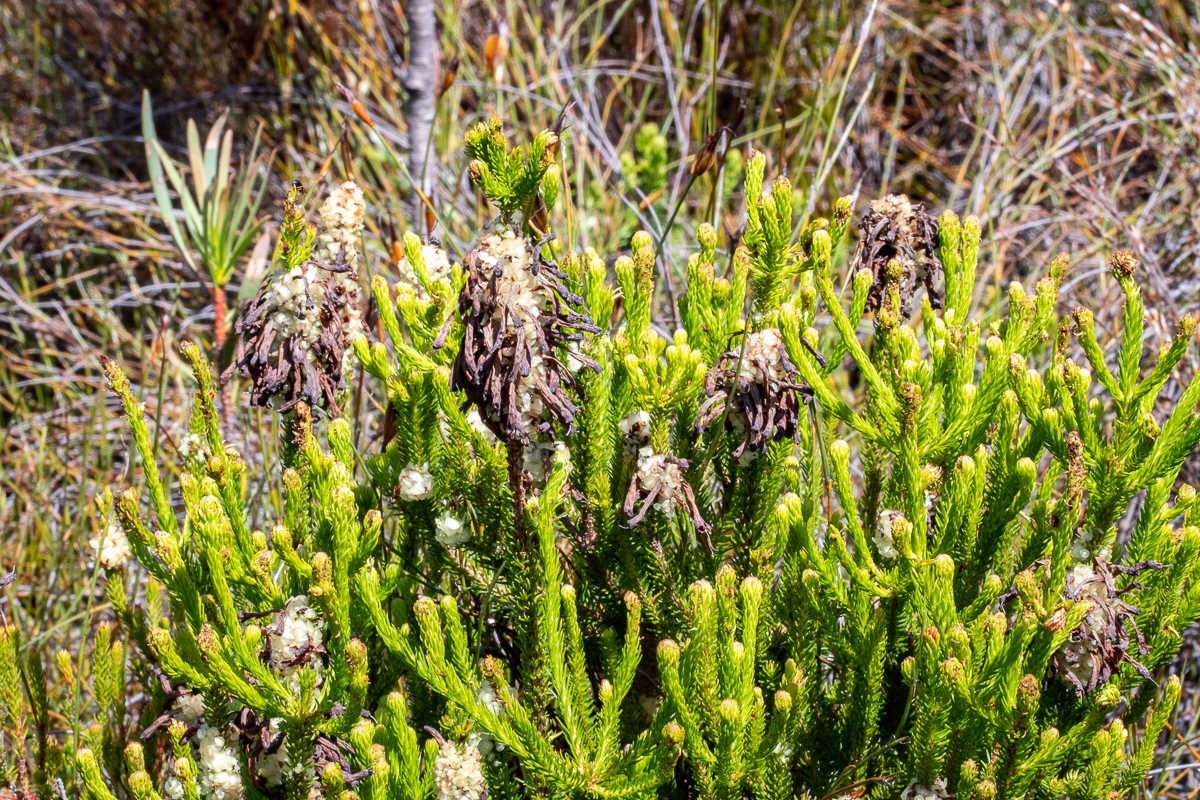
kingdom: Plantae
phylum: Tracheophyta
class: Magnoliopsida
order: Ericales
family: Ericaceae
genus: Erica
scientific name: Erica sessiliflora
